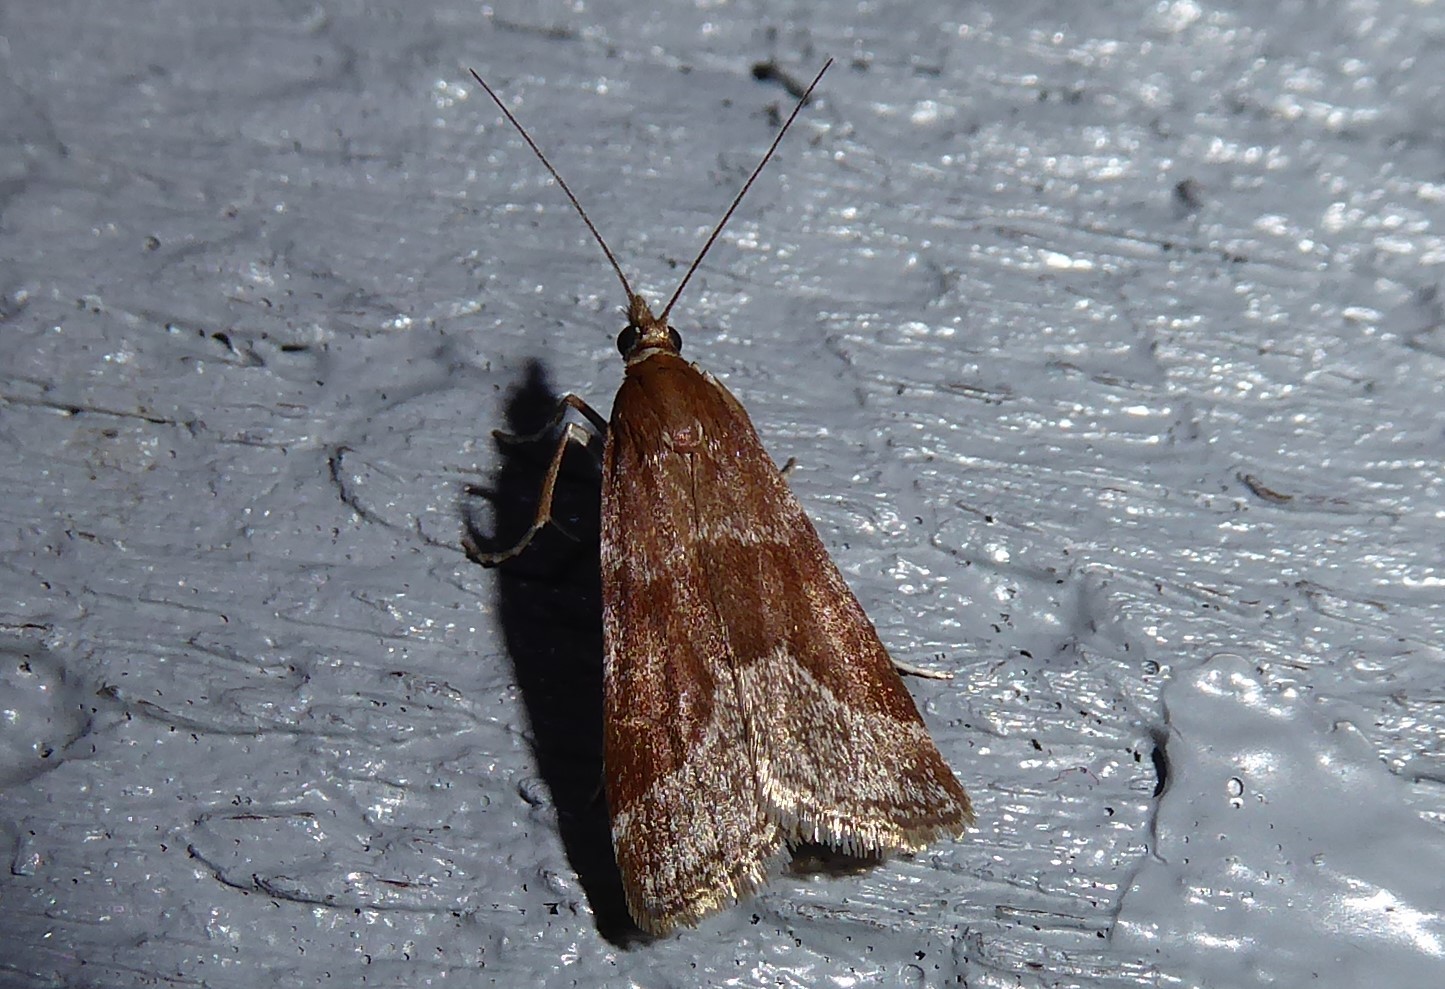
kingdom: Animalia
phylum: Arthropoda
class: Insecta
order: Lepidoptera
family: Crambidae
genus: Eudonia
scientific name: Eudonia feredayi
